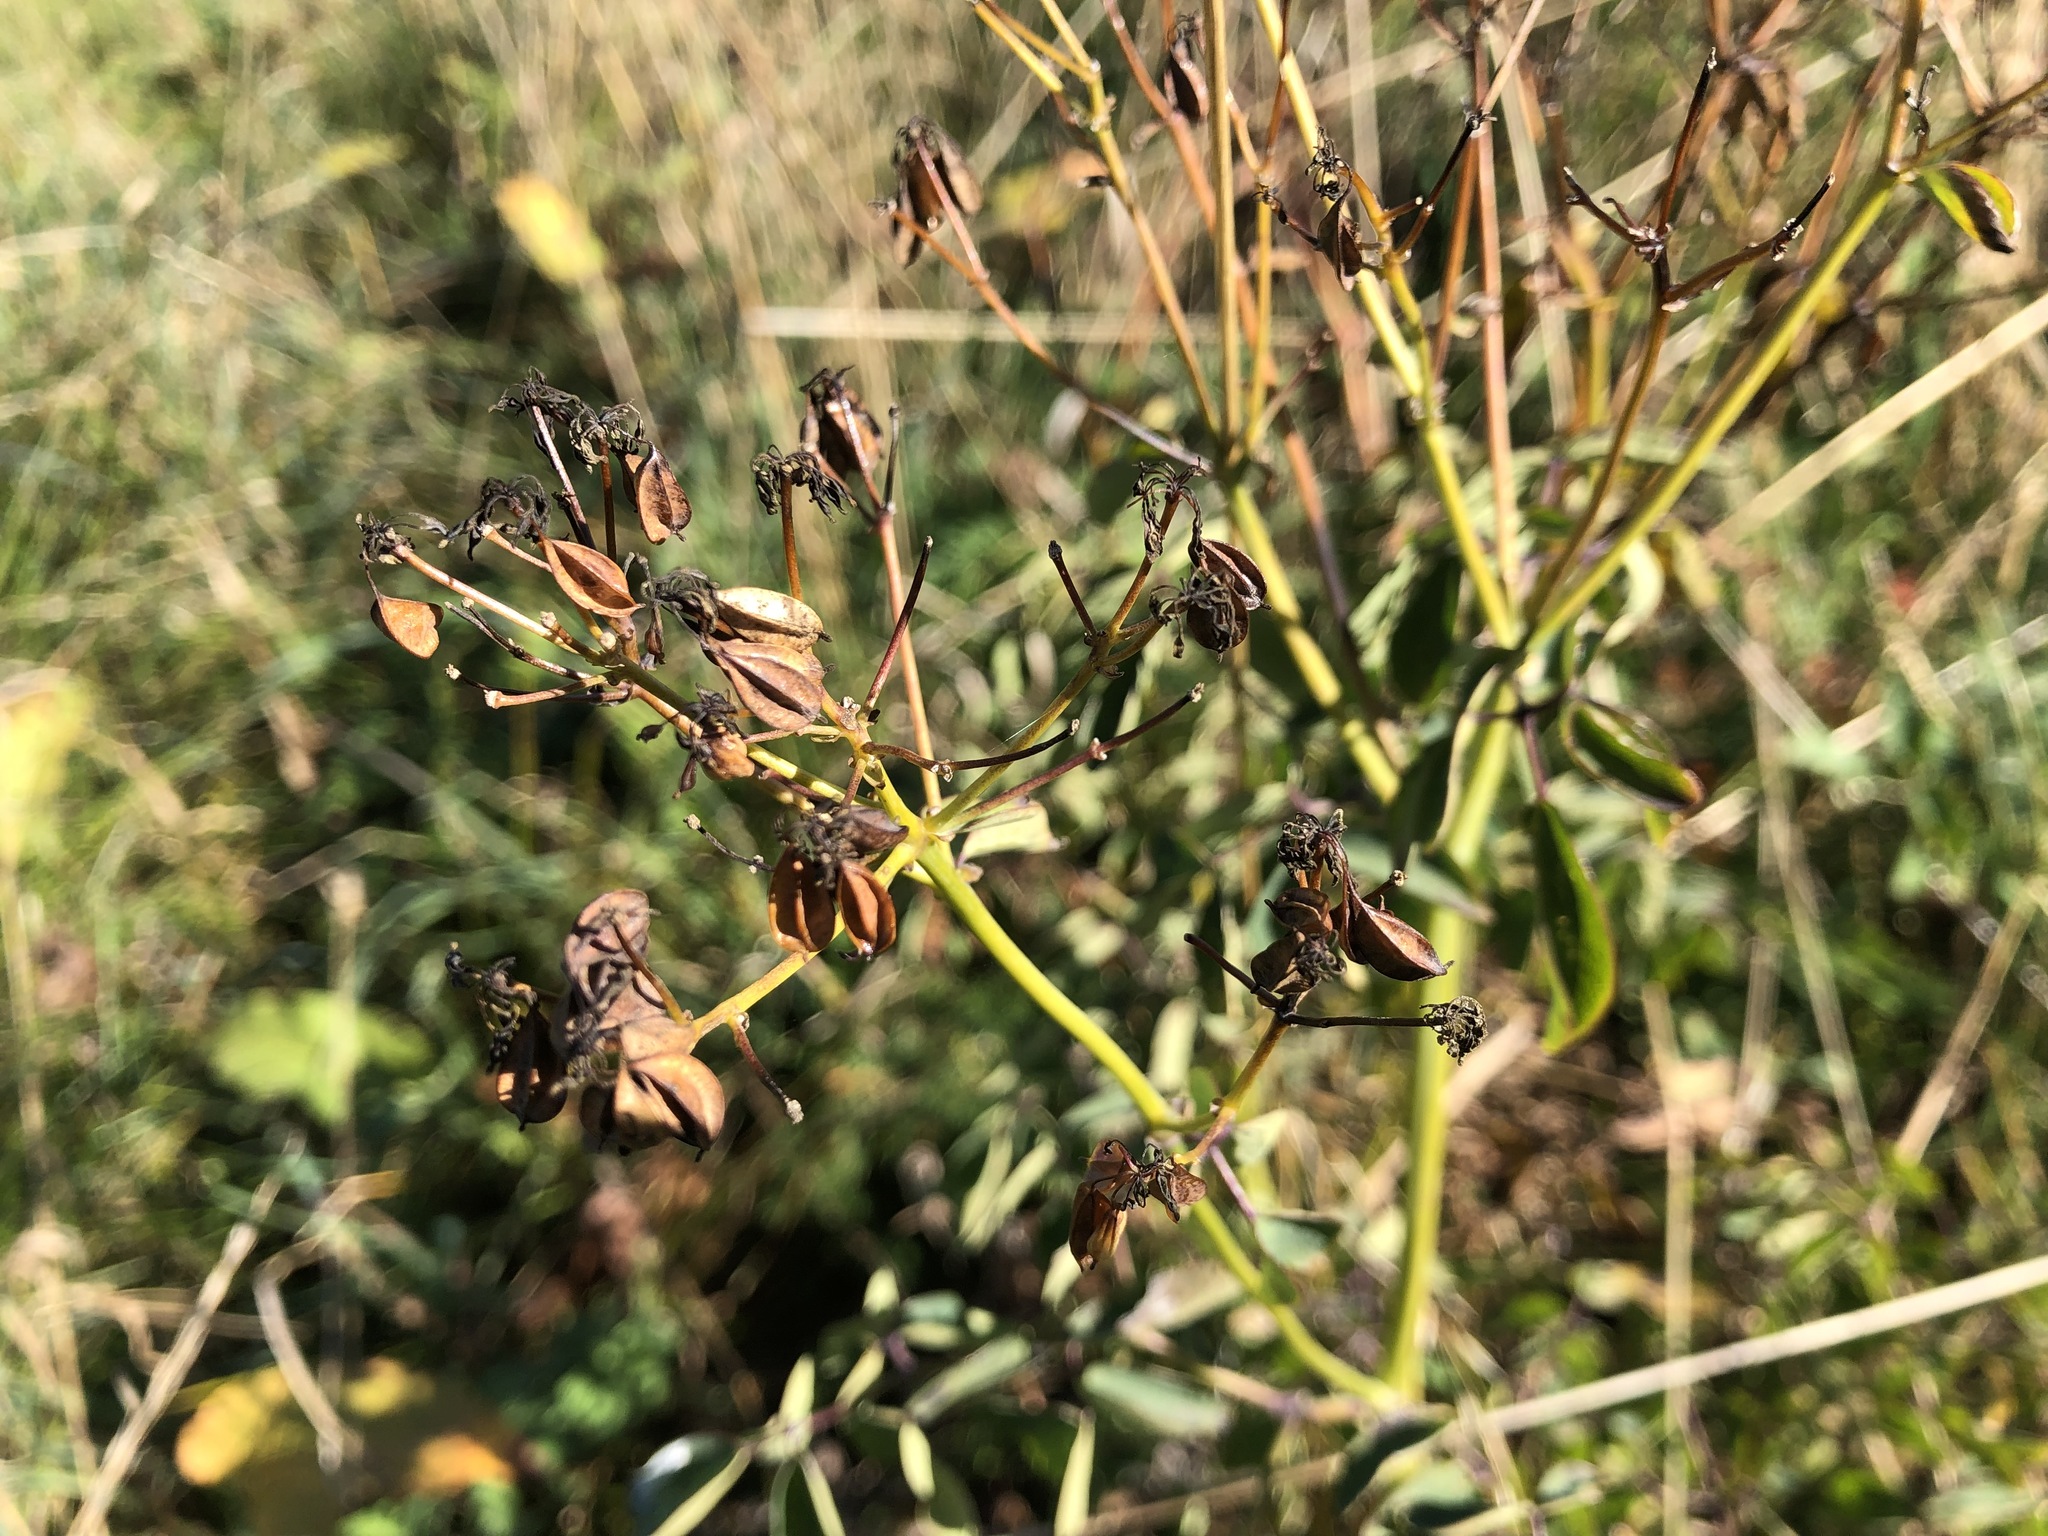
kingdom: Plantae
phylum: Tracheophyta
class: Magnoliopsida
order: Ranunculales
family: Ranunculaceae
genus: Thalictrum
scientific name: Thalictrum aquilegiifolium
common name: French meadow-rue
